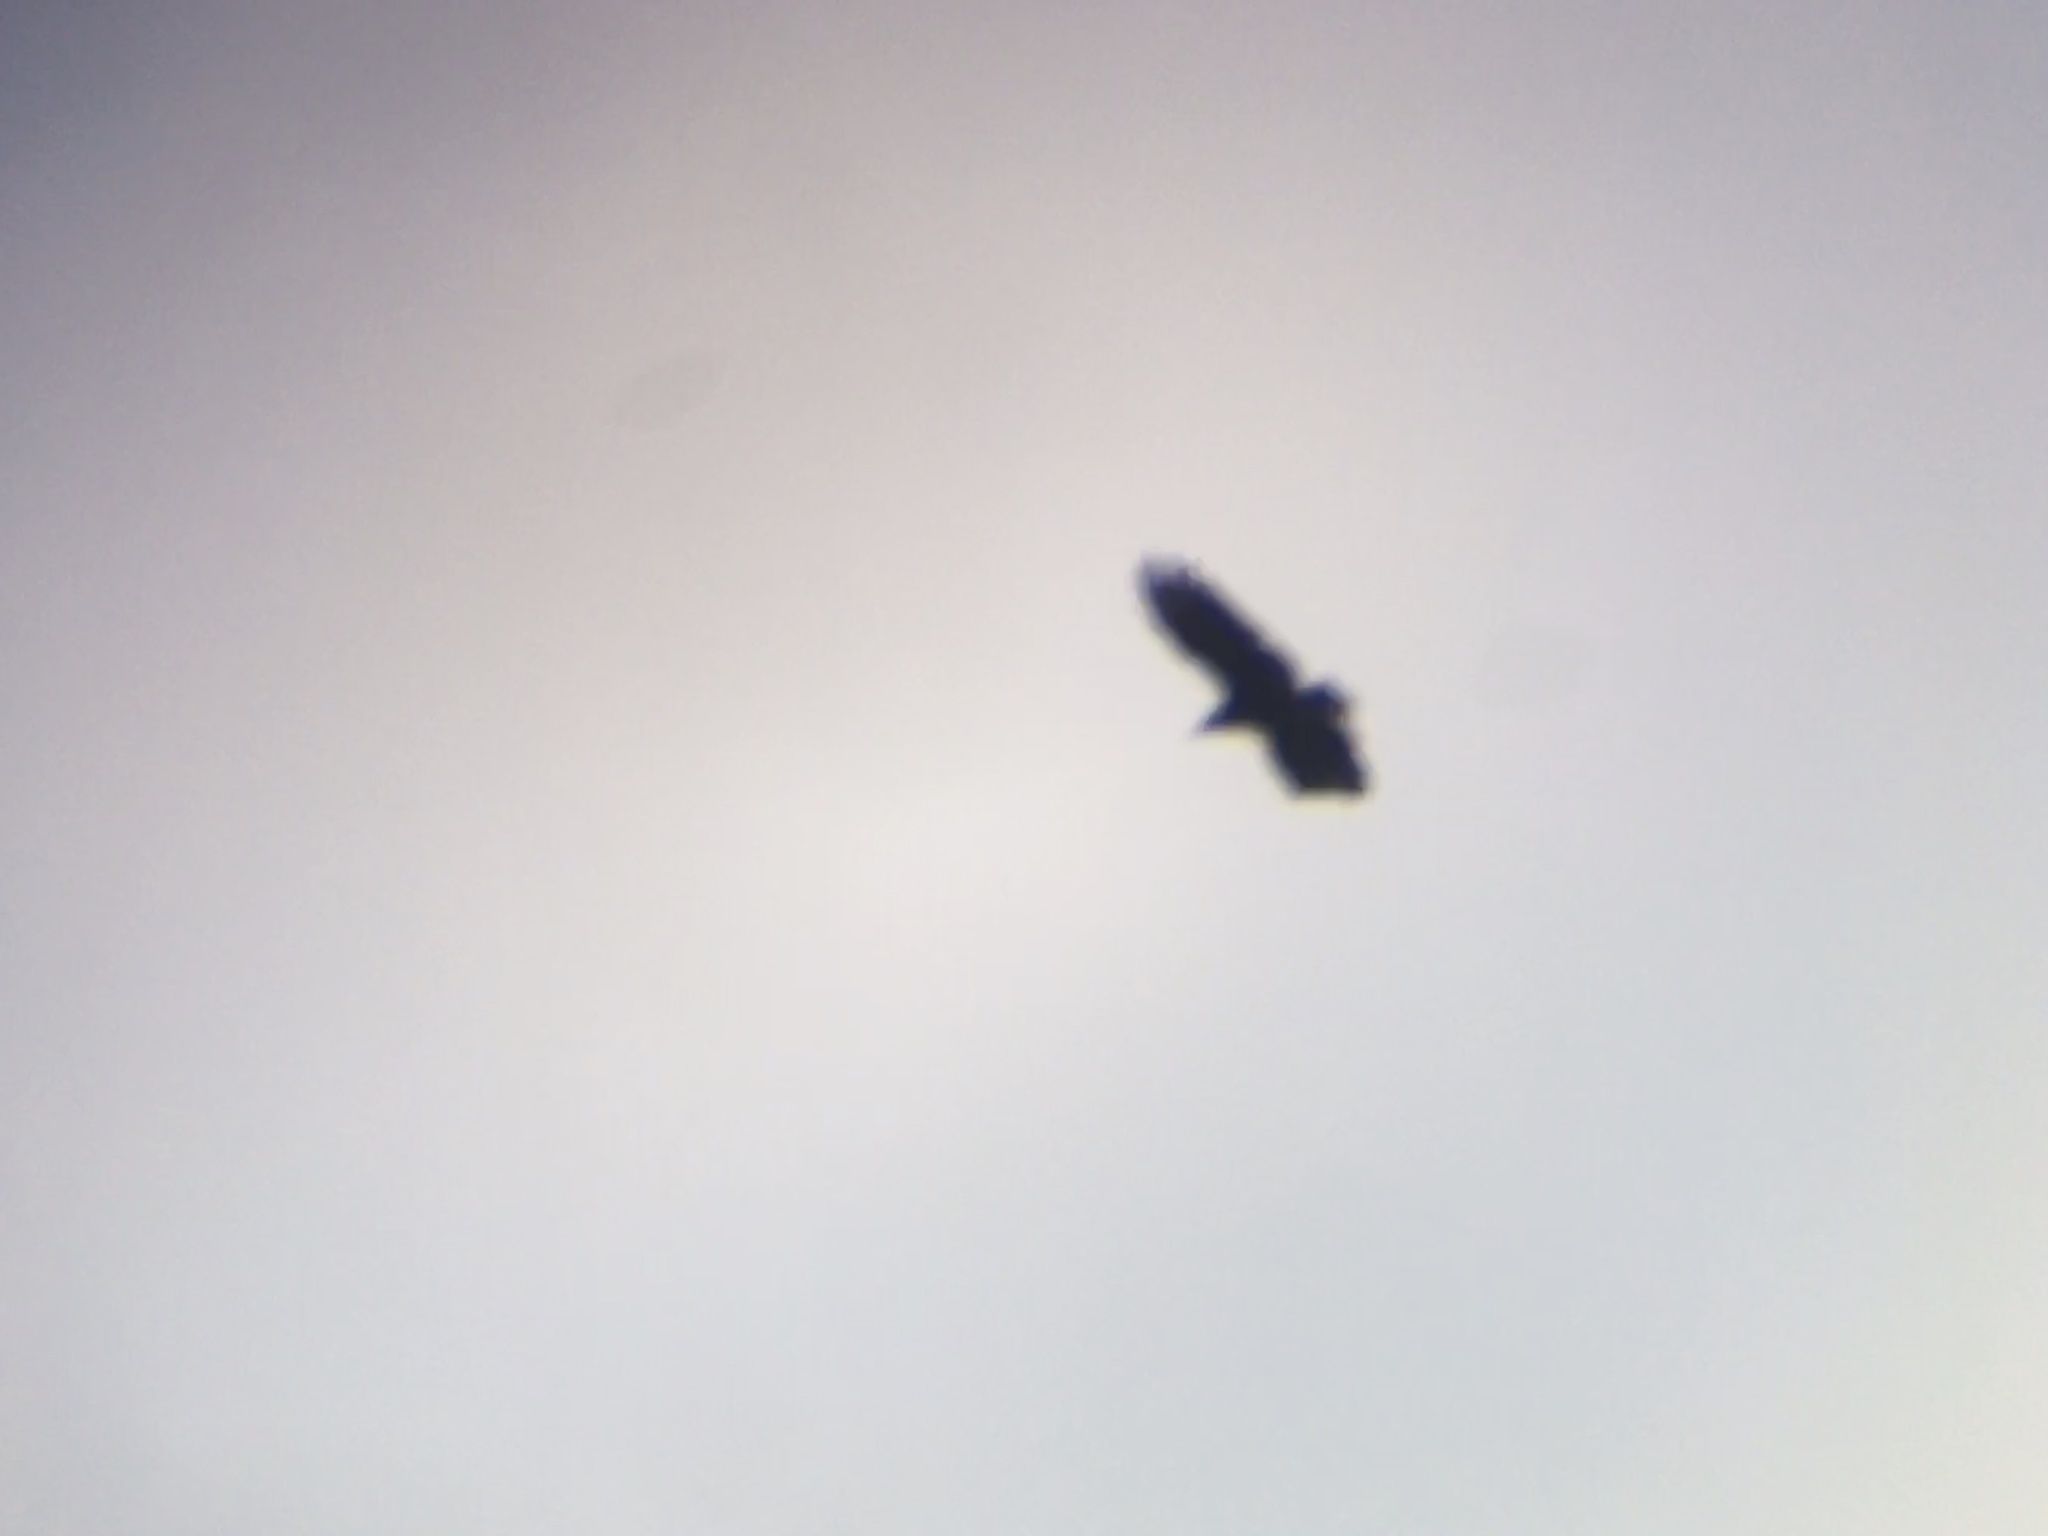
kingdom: Animalia
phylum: Chordata
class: Aves
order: Accipitriformes
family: Cathartidae
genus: Coragyps
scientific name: Coragyps atratus
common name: Black vulture
